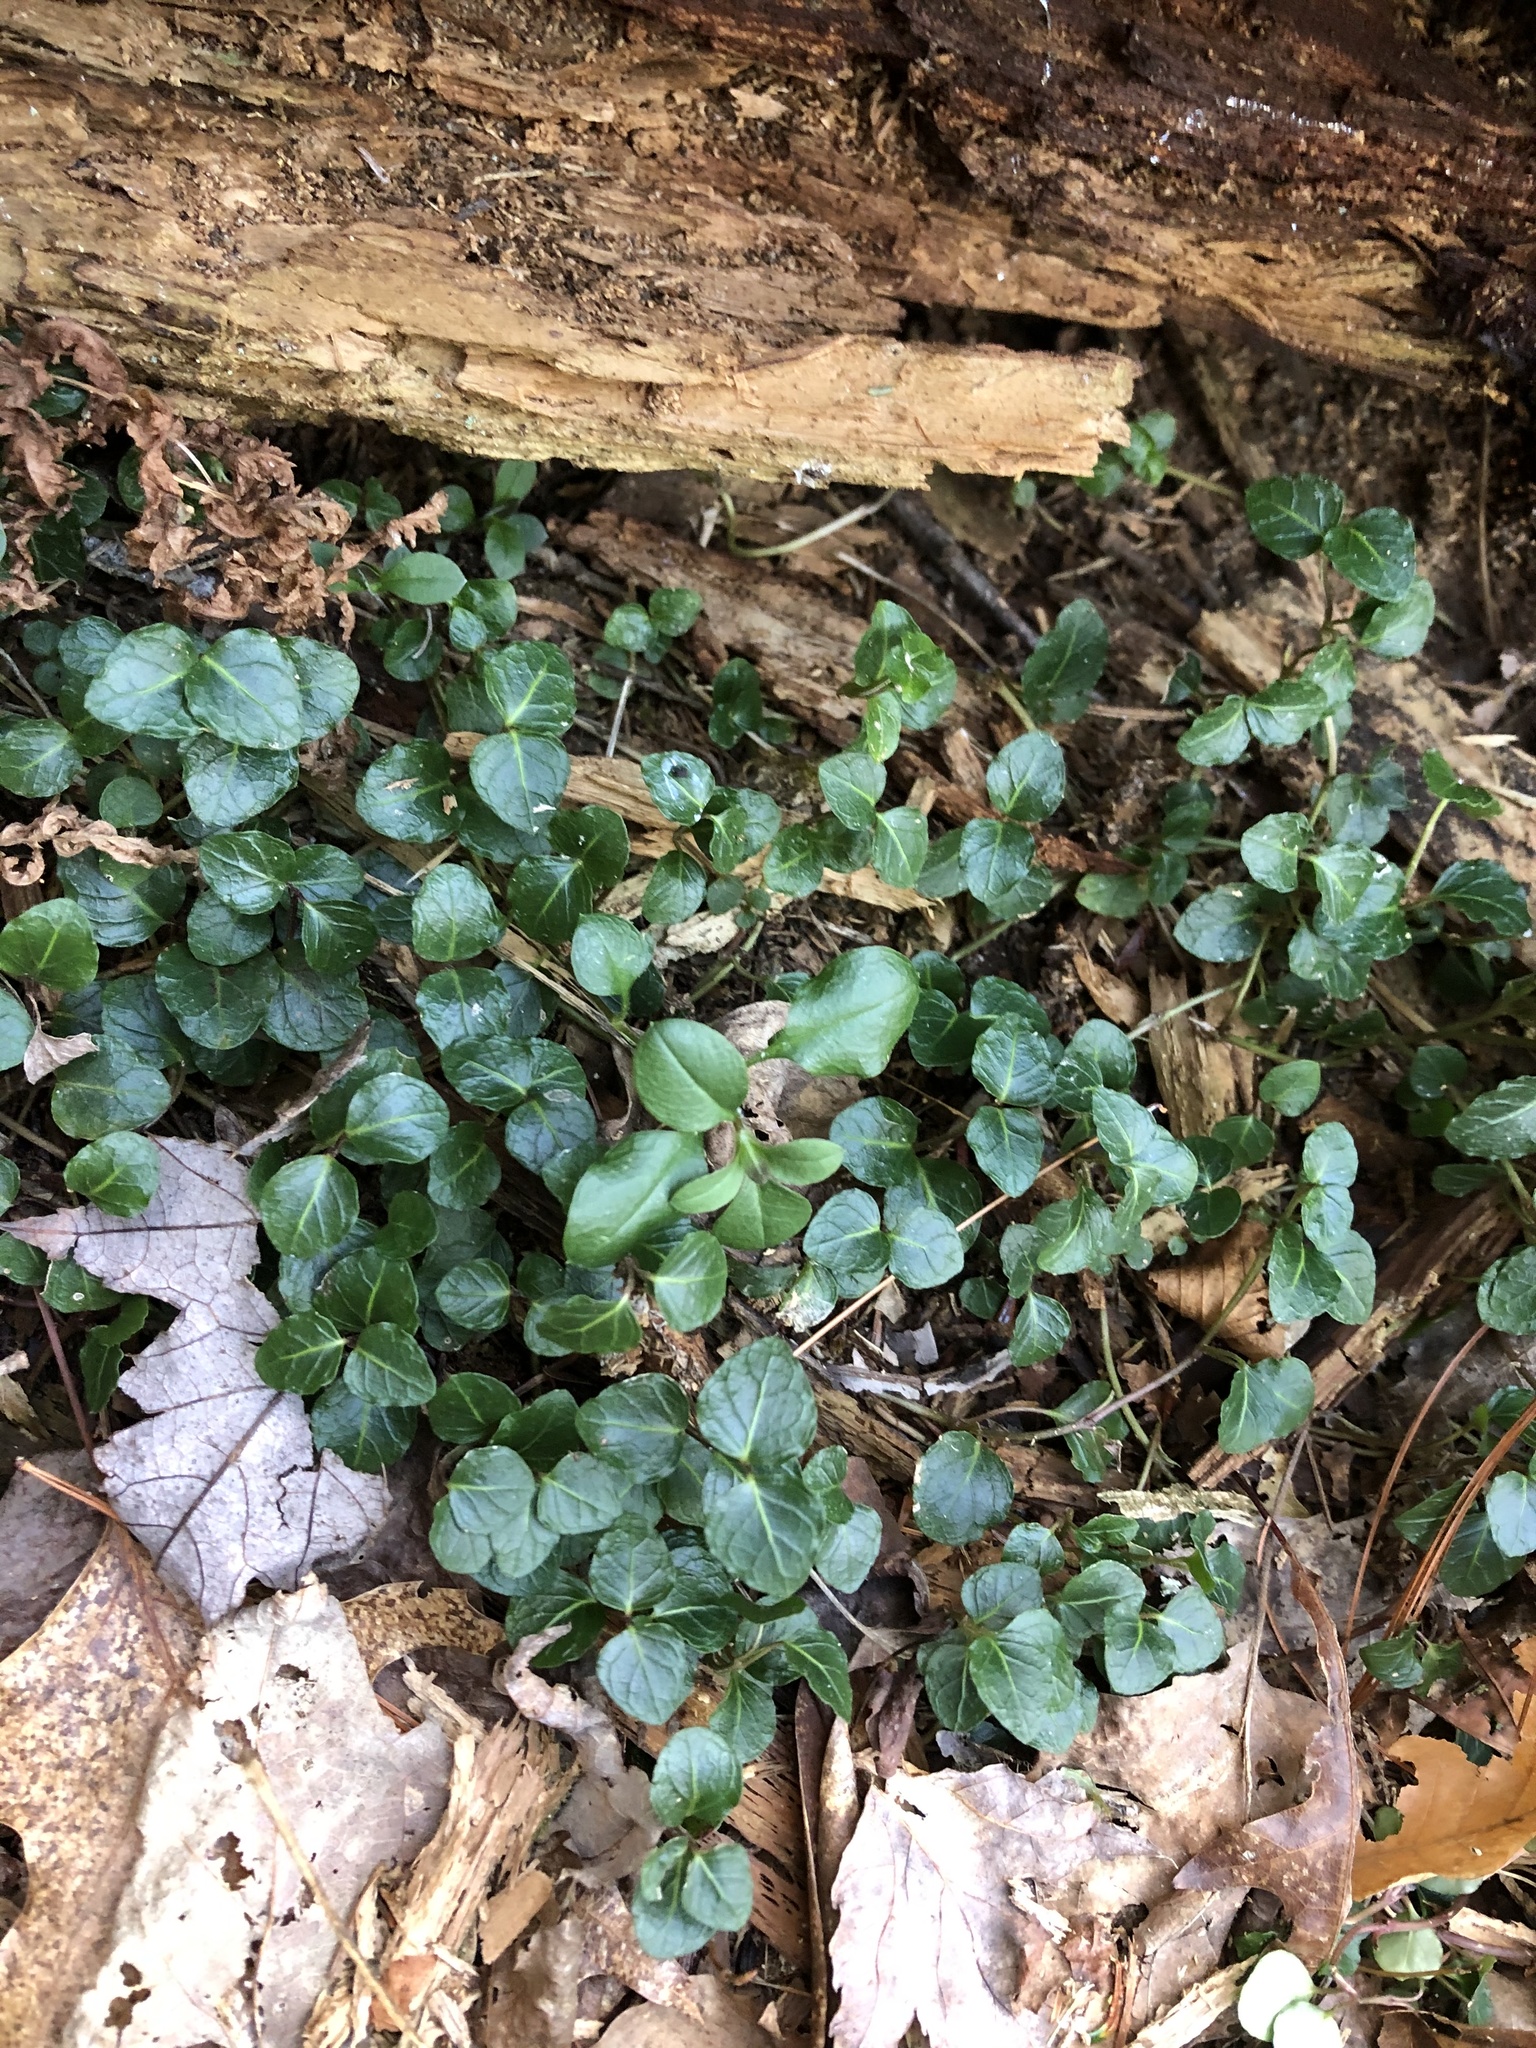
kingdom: Plantae
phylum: Tracheophyta
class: Magnoliopsida
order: Gentianales
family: Rubiaceae
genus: Mitchella
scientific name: Mitchella repens
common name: Partridge-berry
